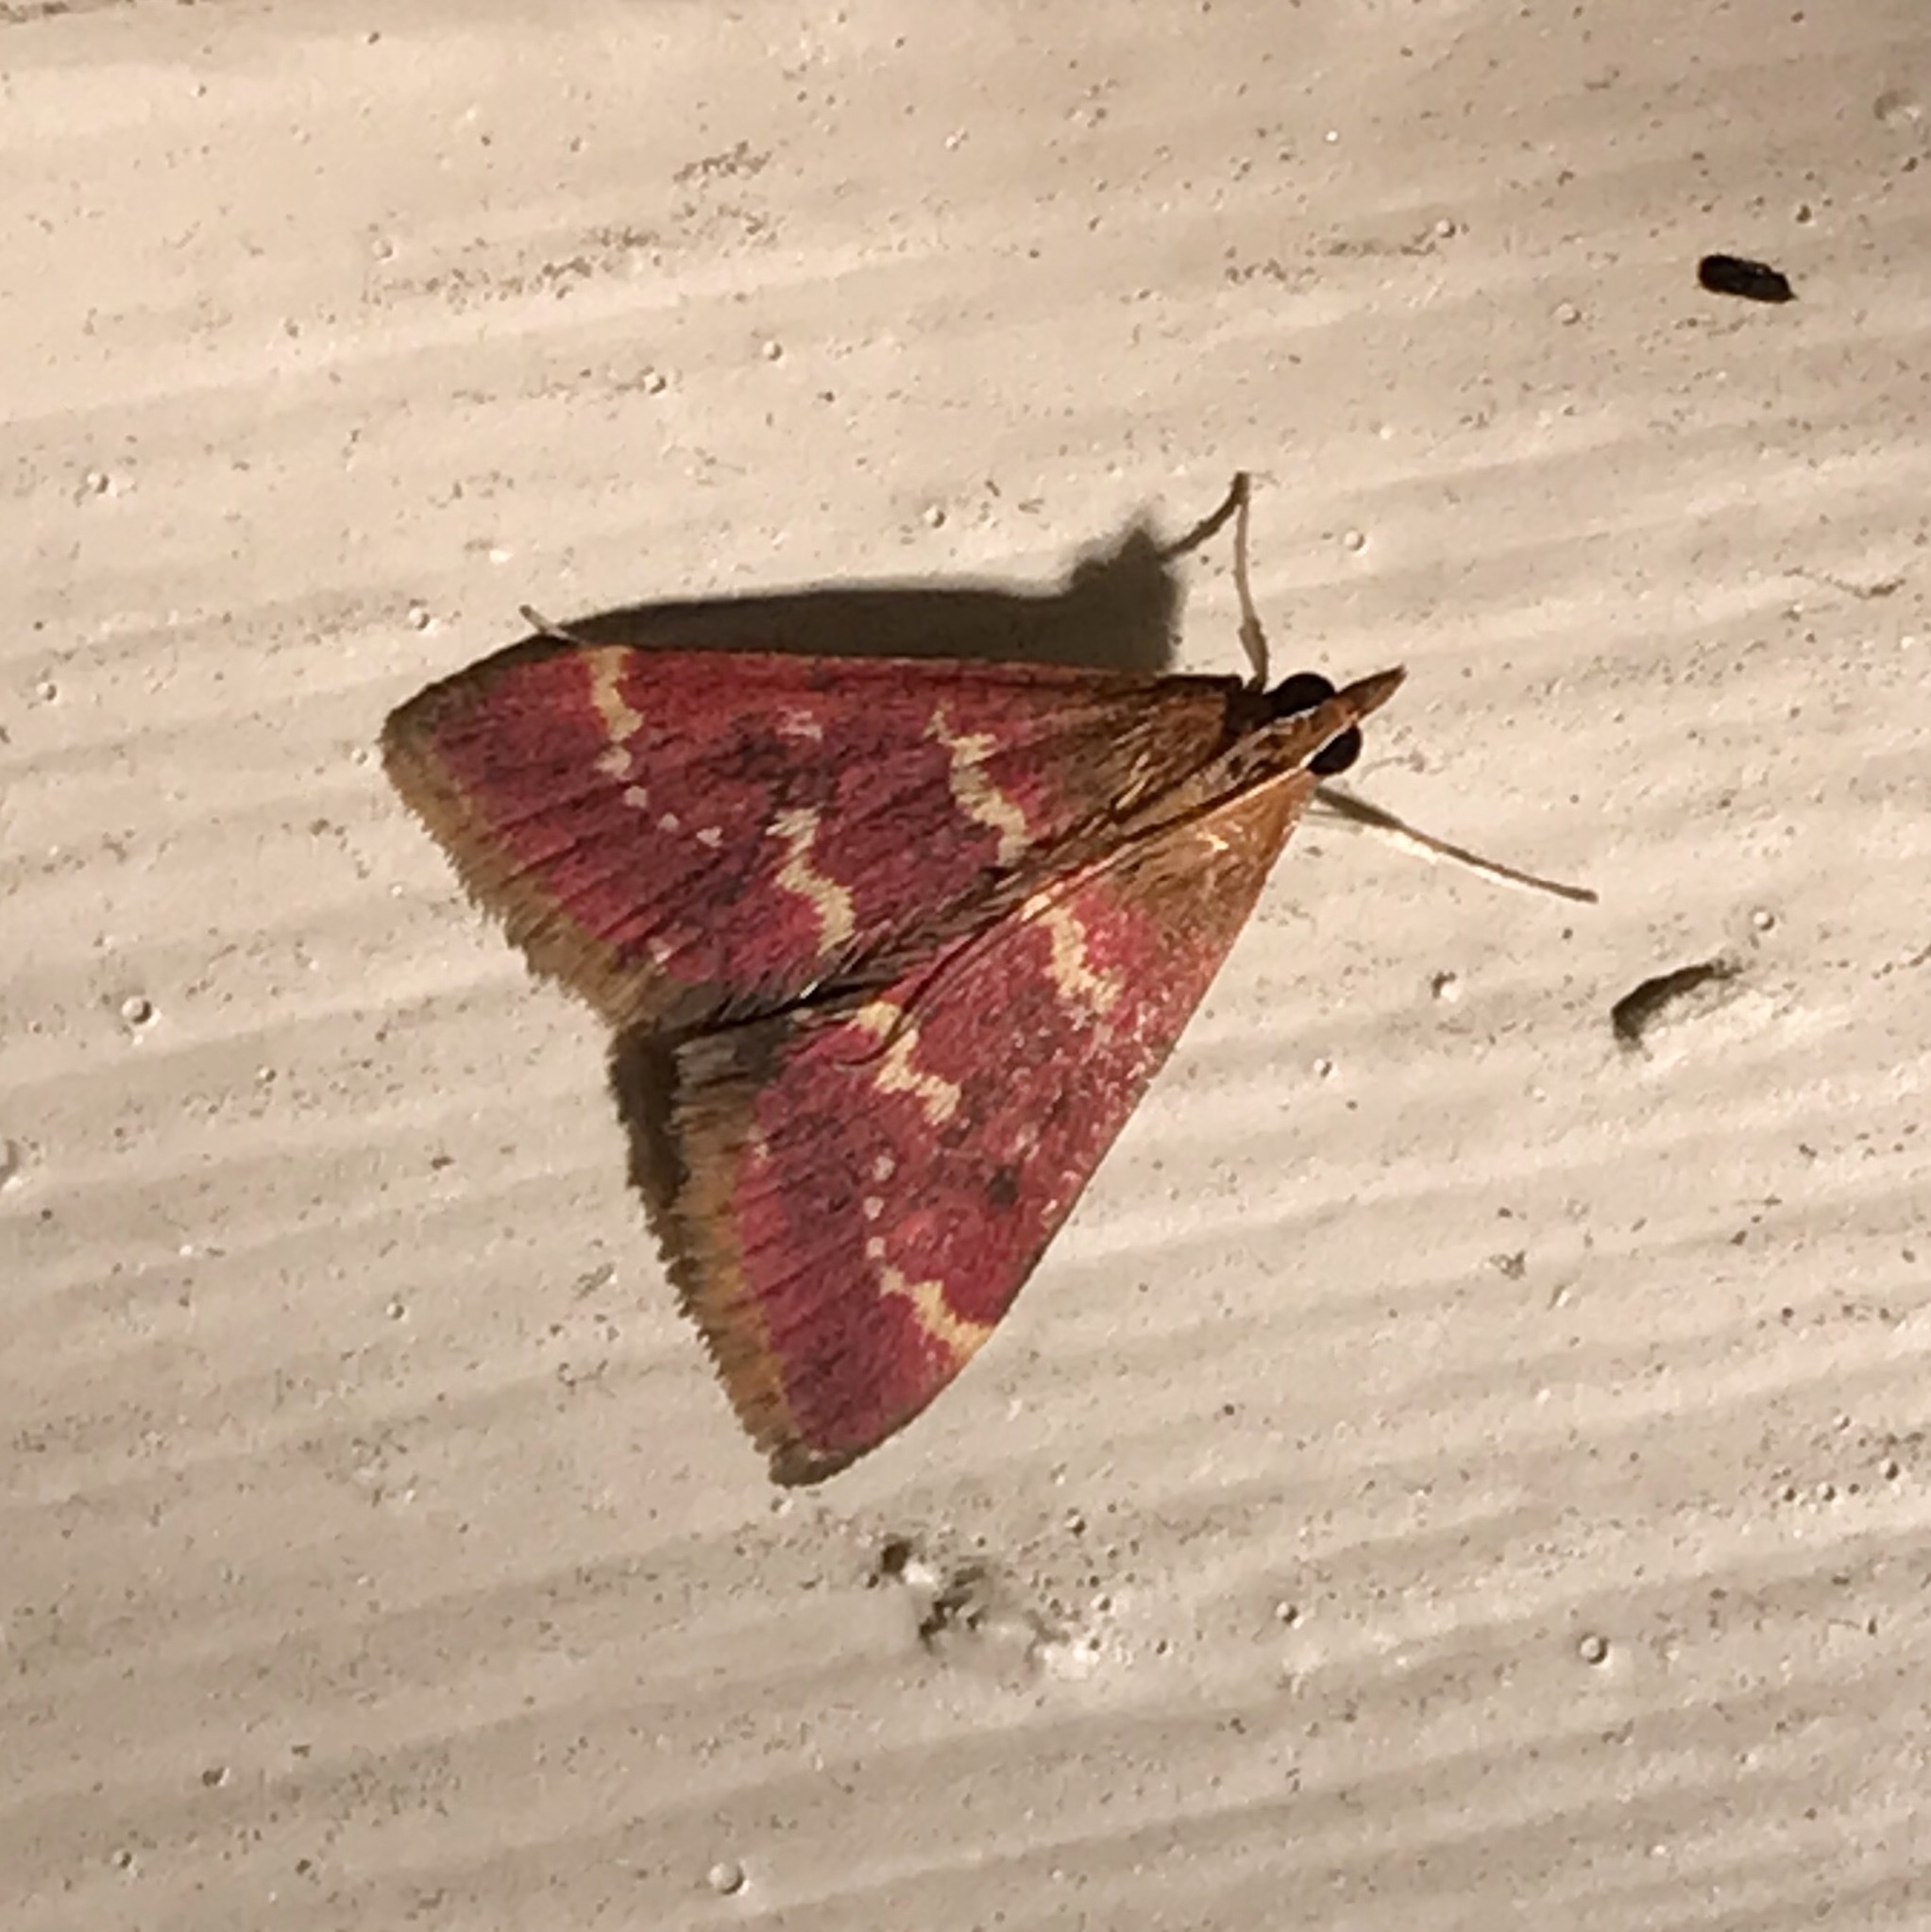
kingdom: Animalia
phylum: Arthropoda
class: Insecta
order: Lepidoptera
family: Crambidae
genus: Pyrausta
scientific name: Pyrausta signatalis
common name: Raspberry pyrausta moth
